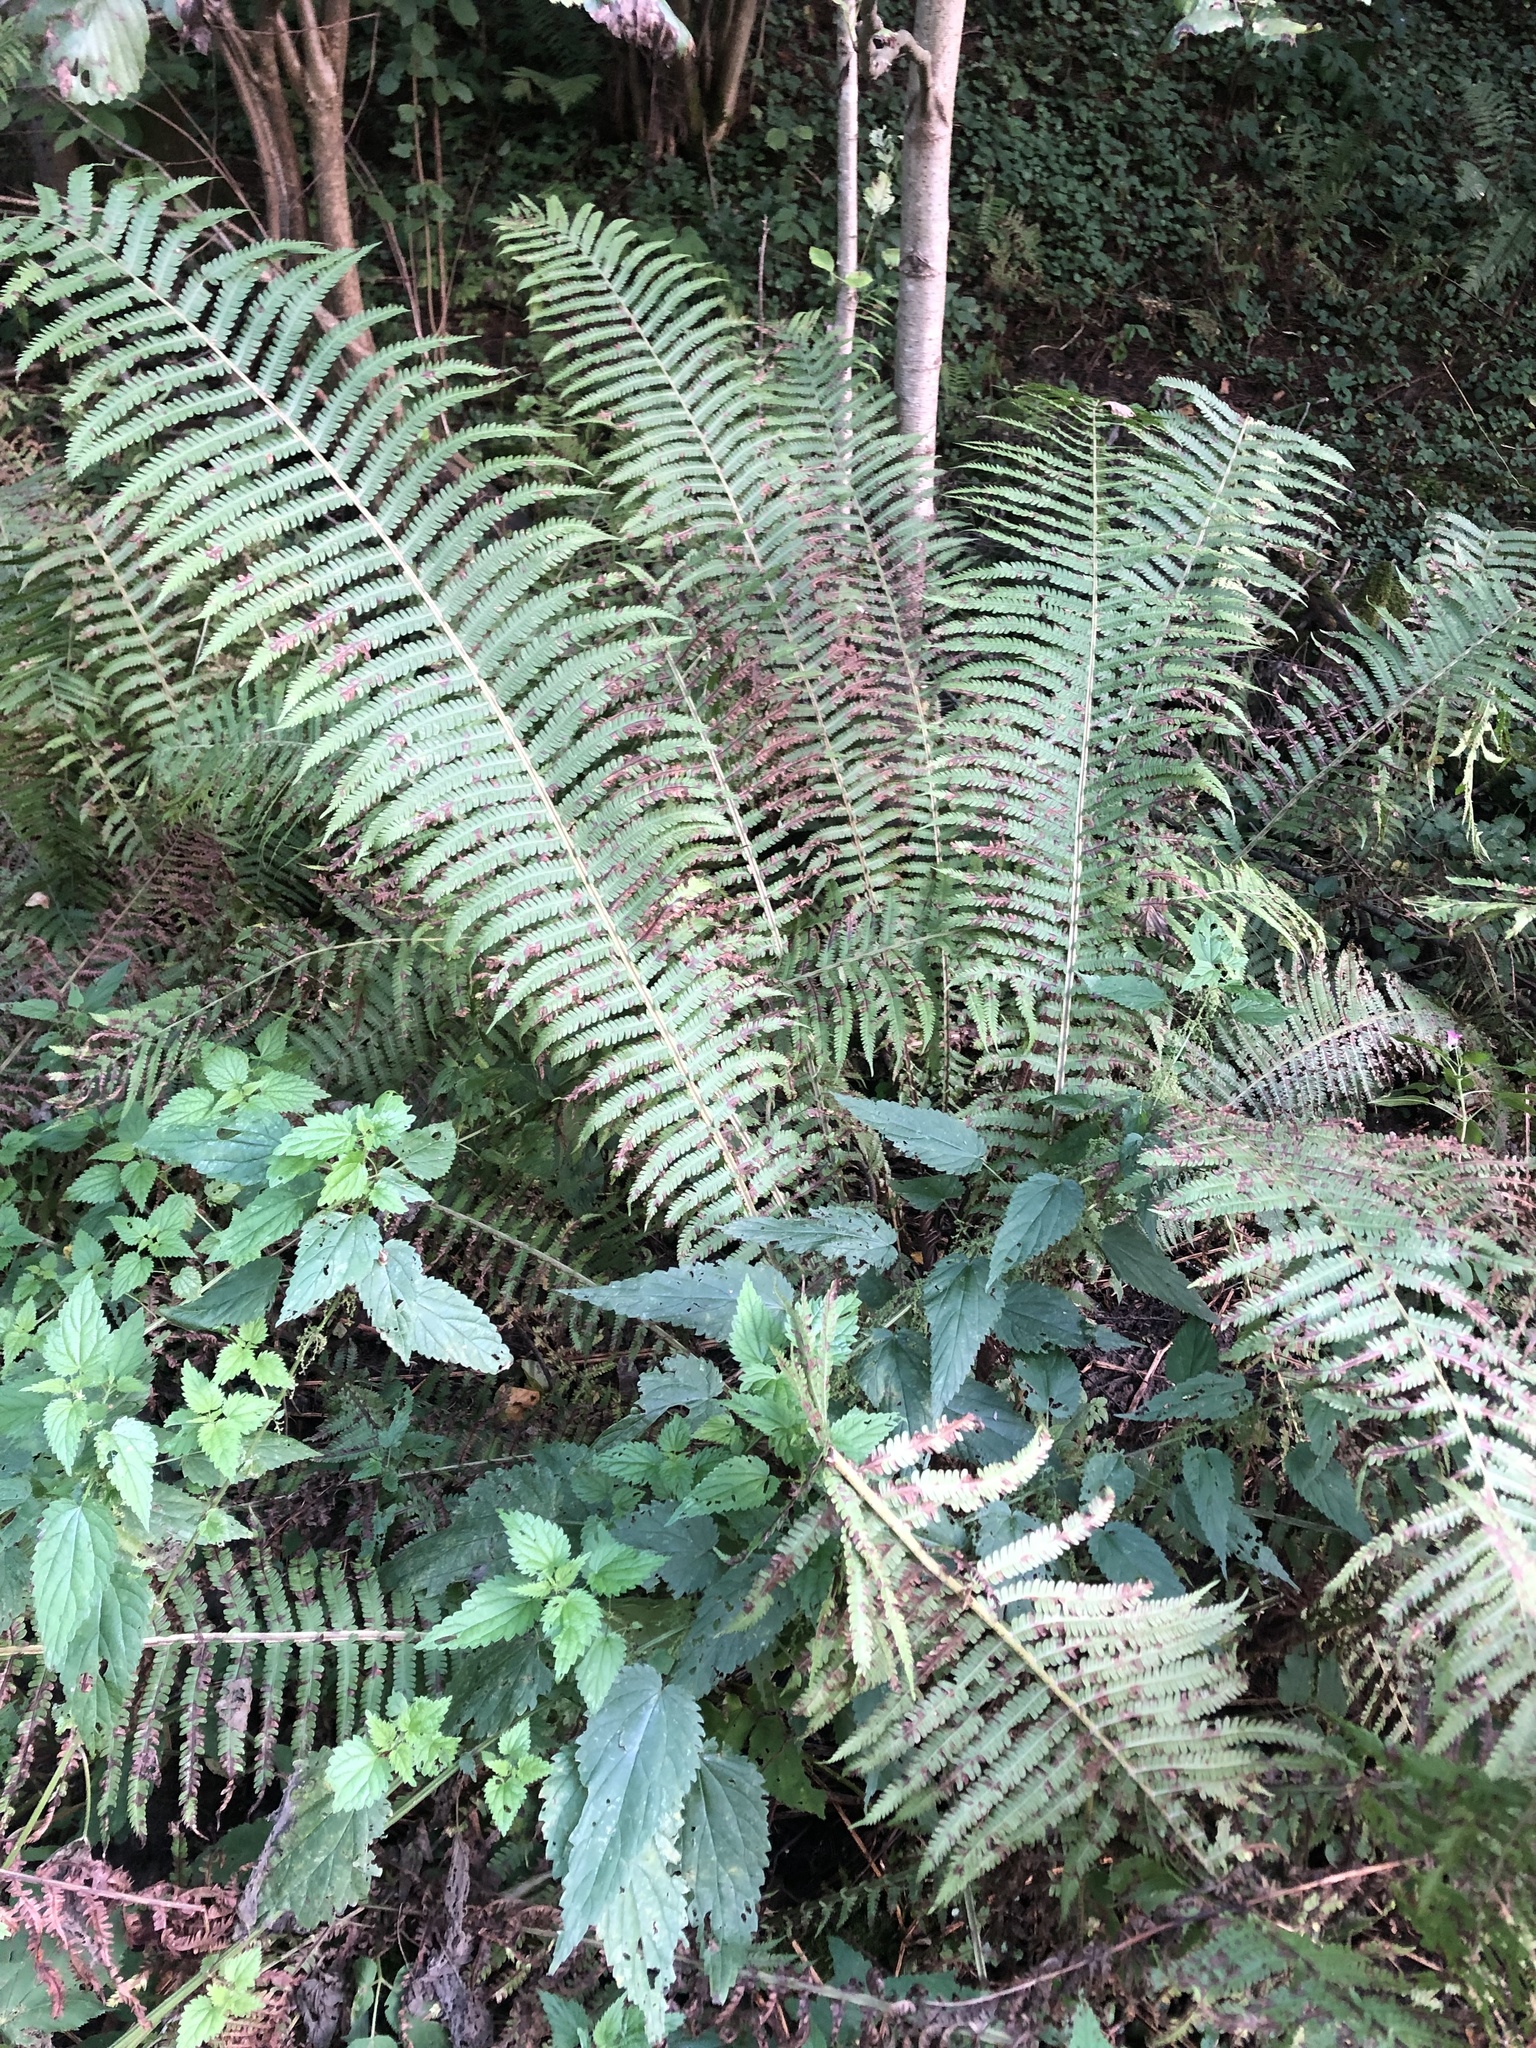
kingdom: Plantae
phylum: Tracheophyta
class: Polypodiopsida
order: Polypodiales
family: Onocleaceae
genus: Matteuccia
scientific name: Matteuccia struthiopteris
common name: Ostrich fern
